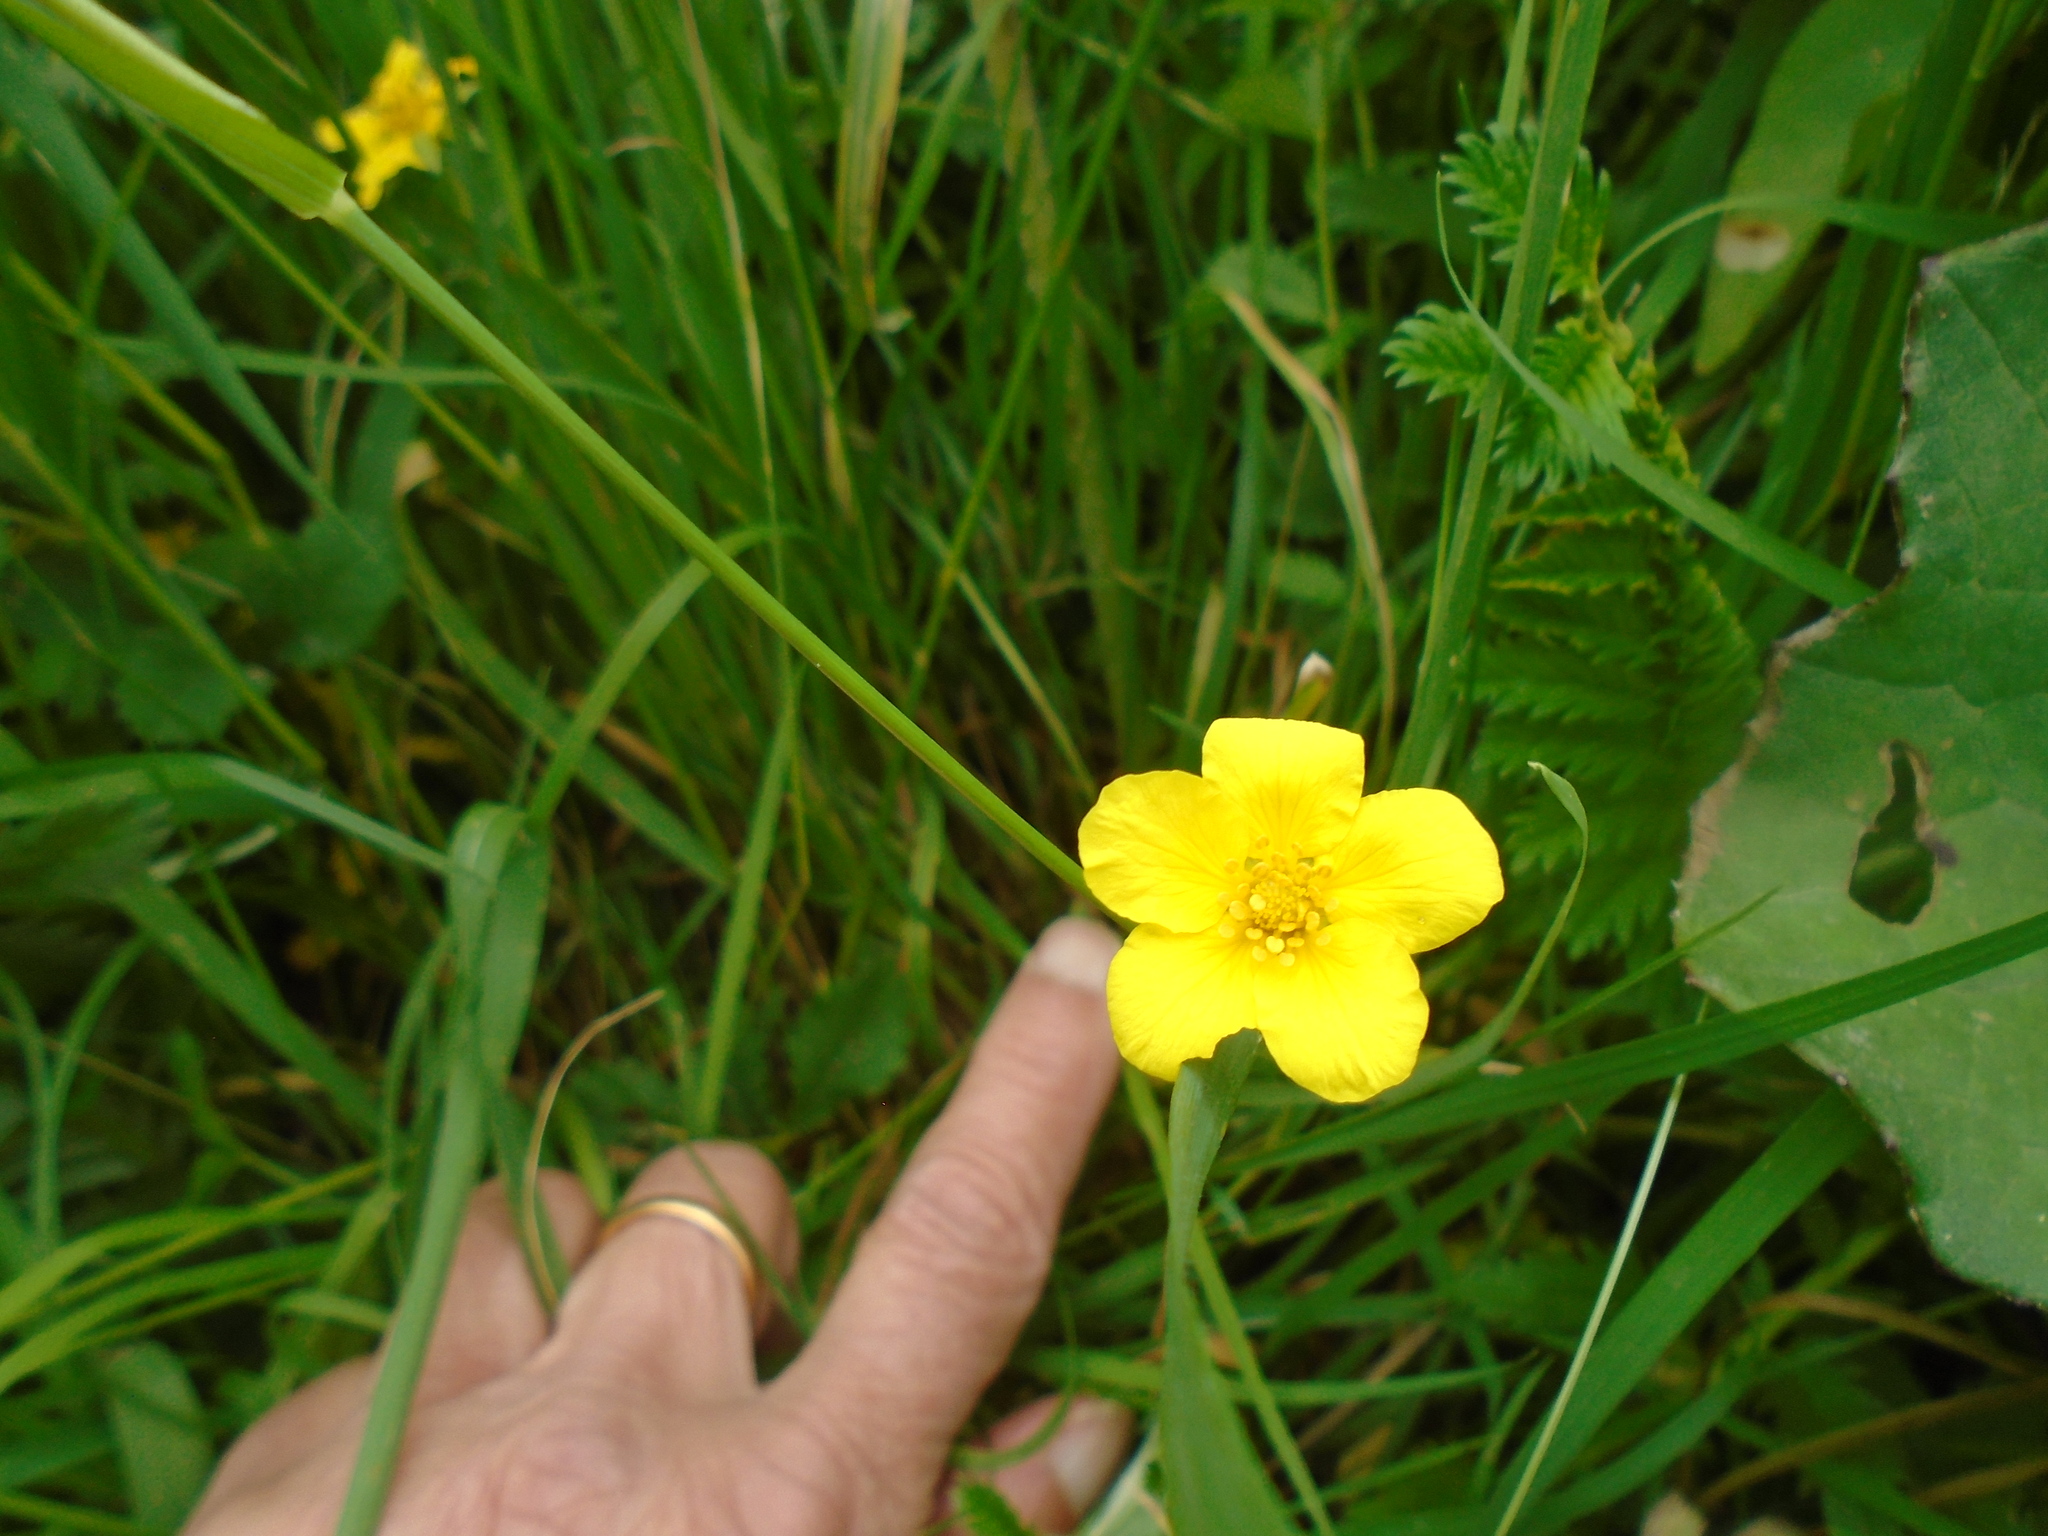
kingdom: Plantae
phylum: Tracheophyta
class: Magnoliopsida
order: Rosales
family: Rosaceae
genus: Argentina
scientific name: Argentina anserina
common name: Common silverweed
